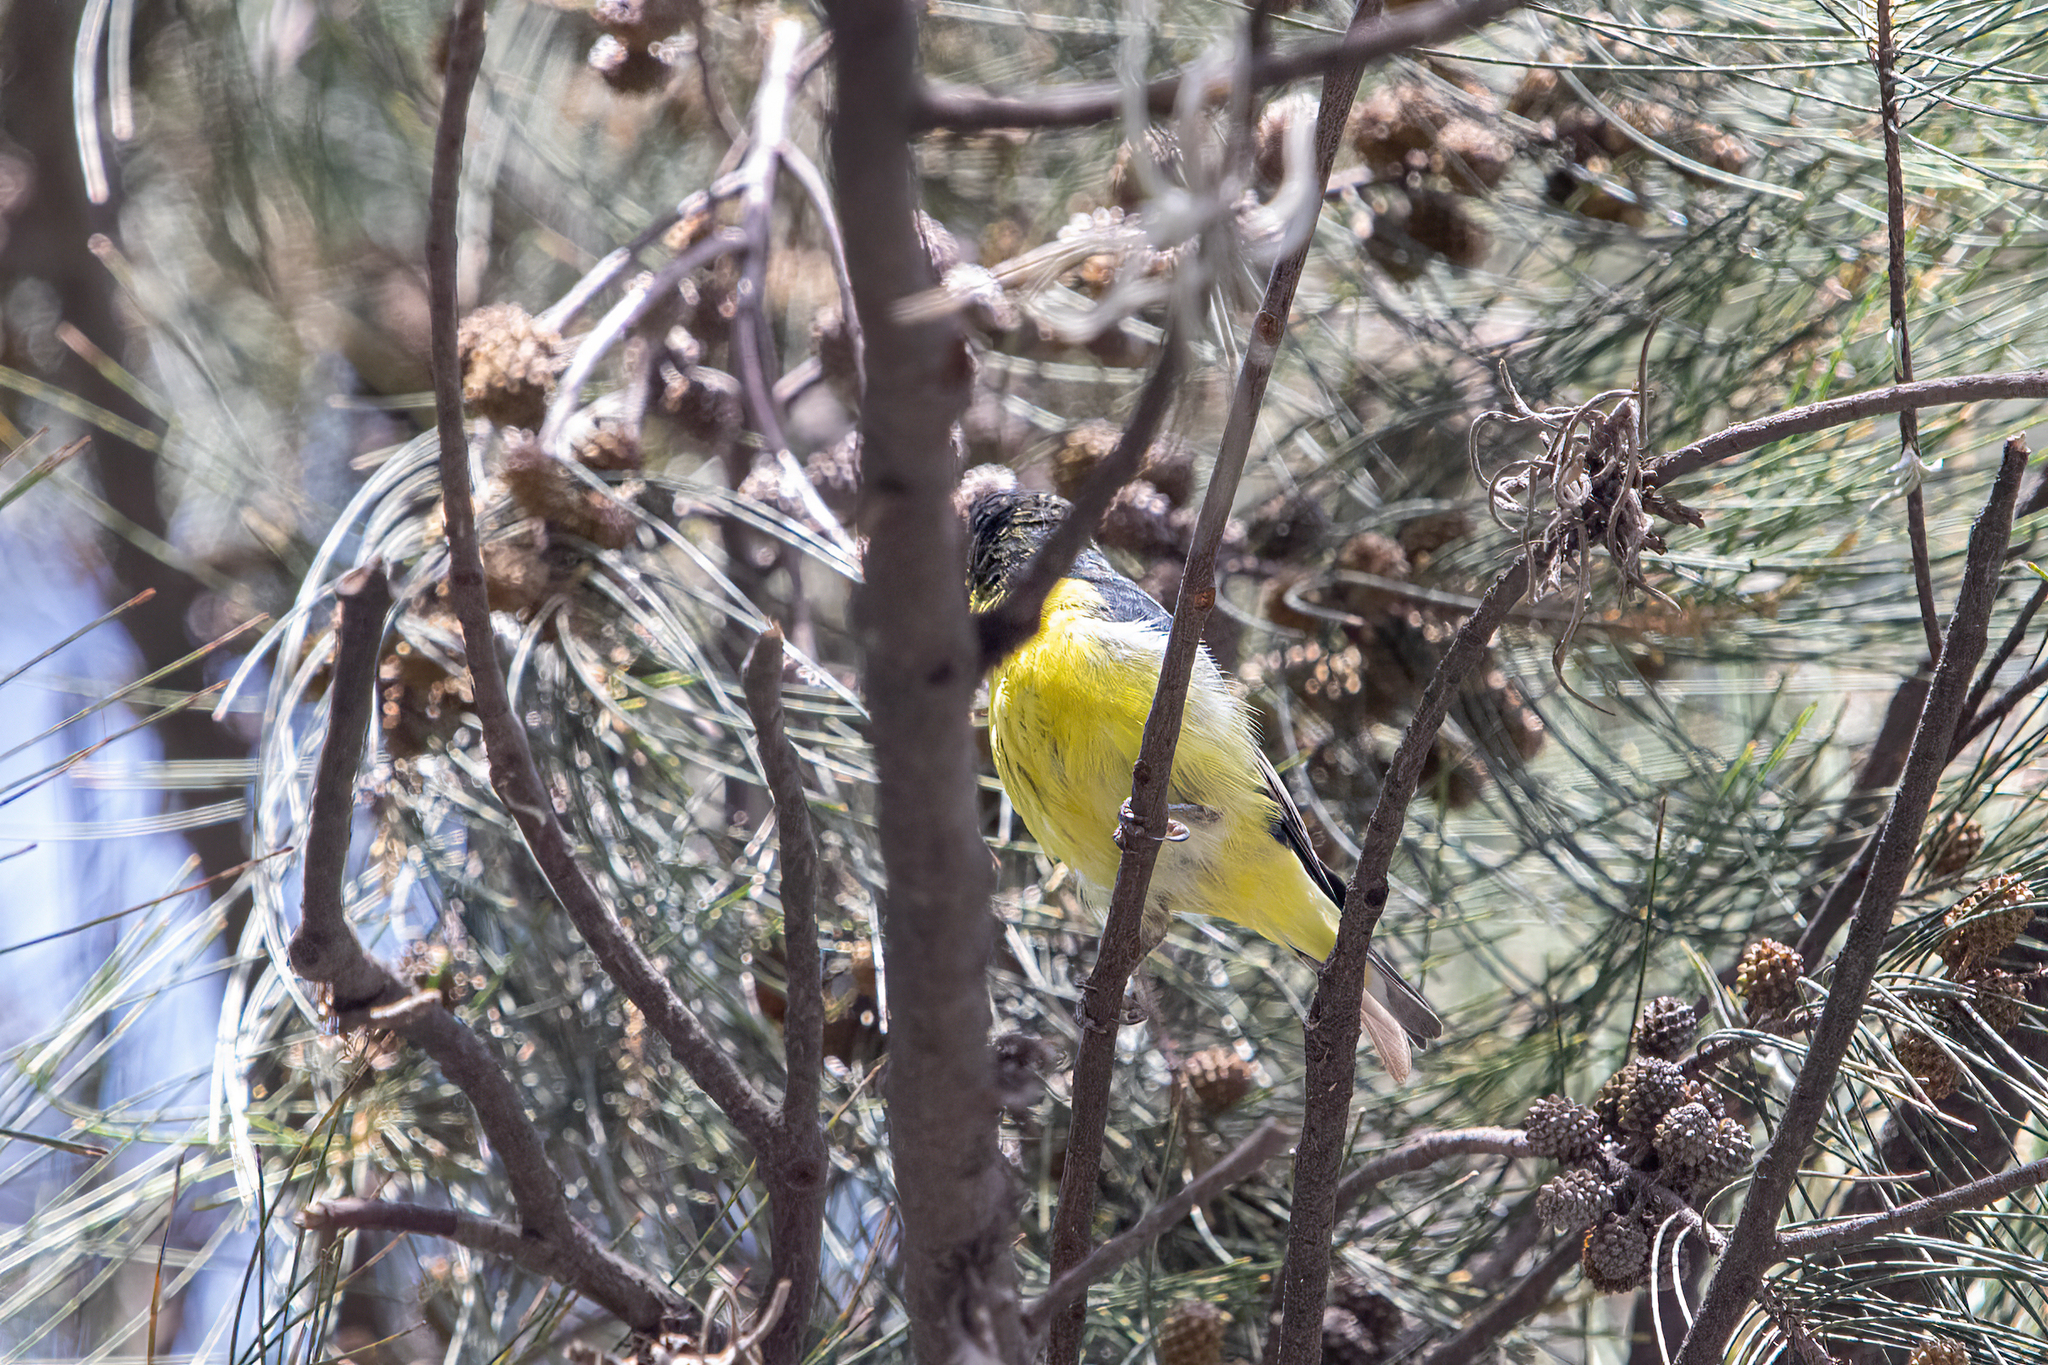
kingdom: Animalia
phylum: Chordata
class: Aves
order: Passeriformes
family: Fringillidae
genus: Spinus
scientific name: Spinus psaltria
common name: Lesser goldfinch
